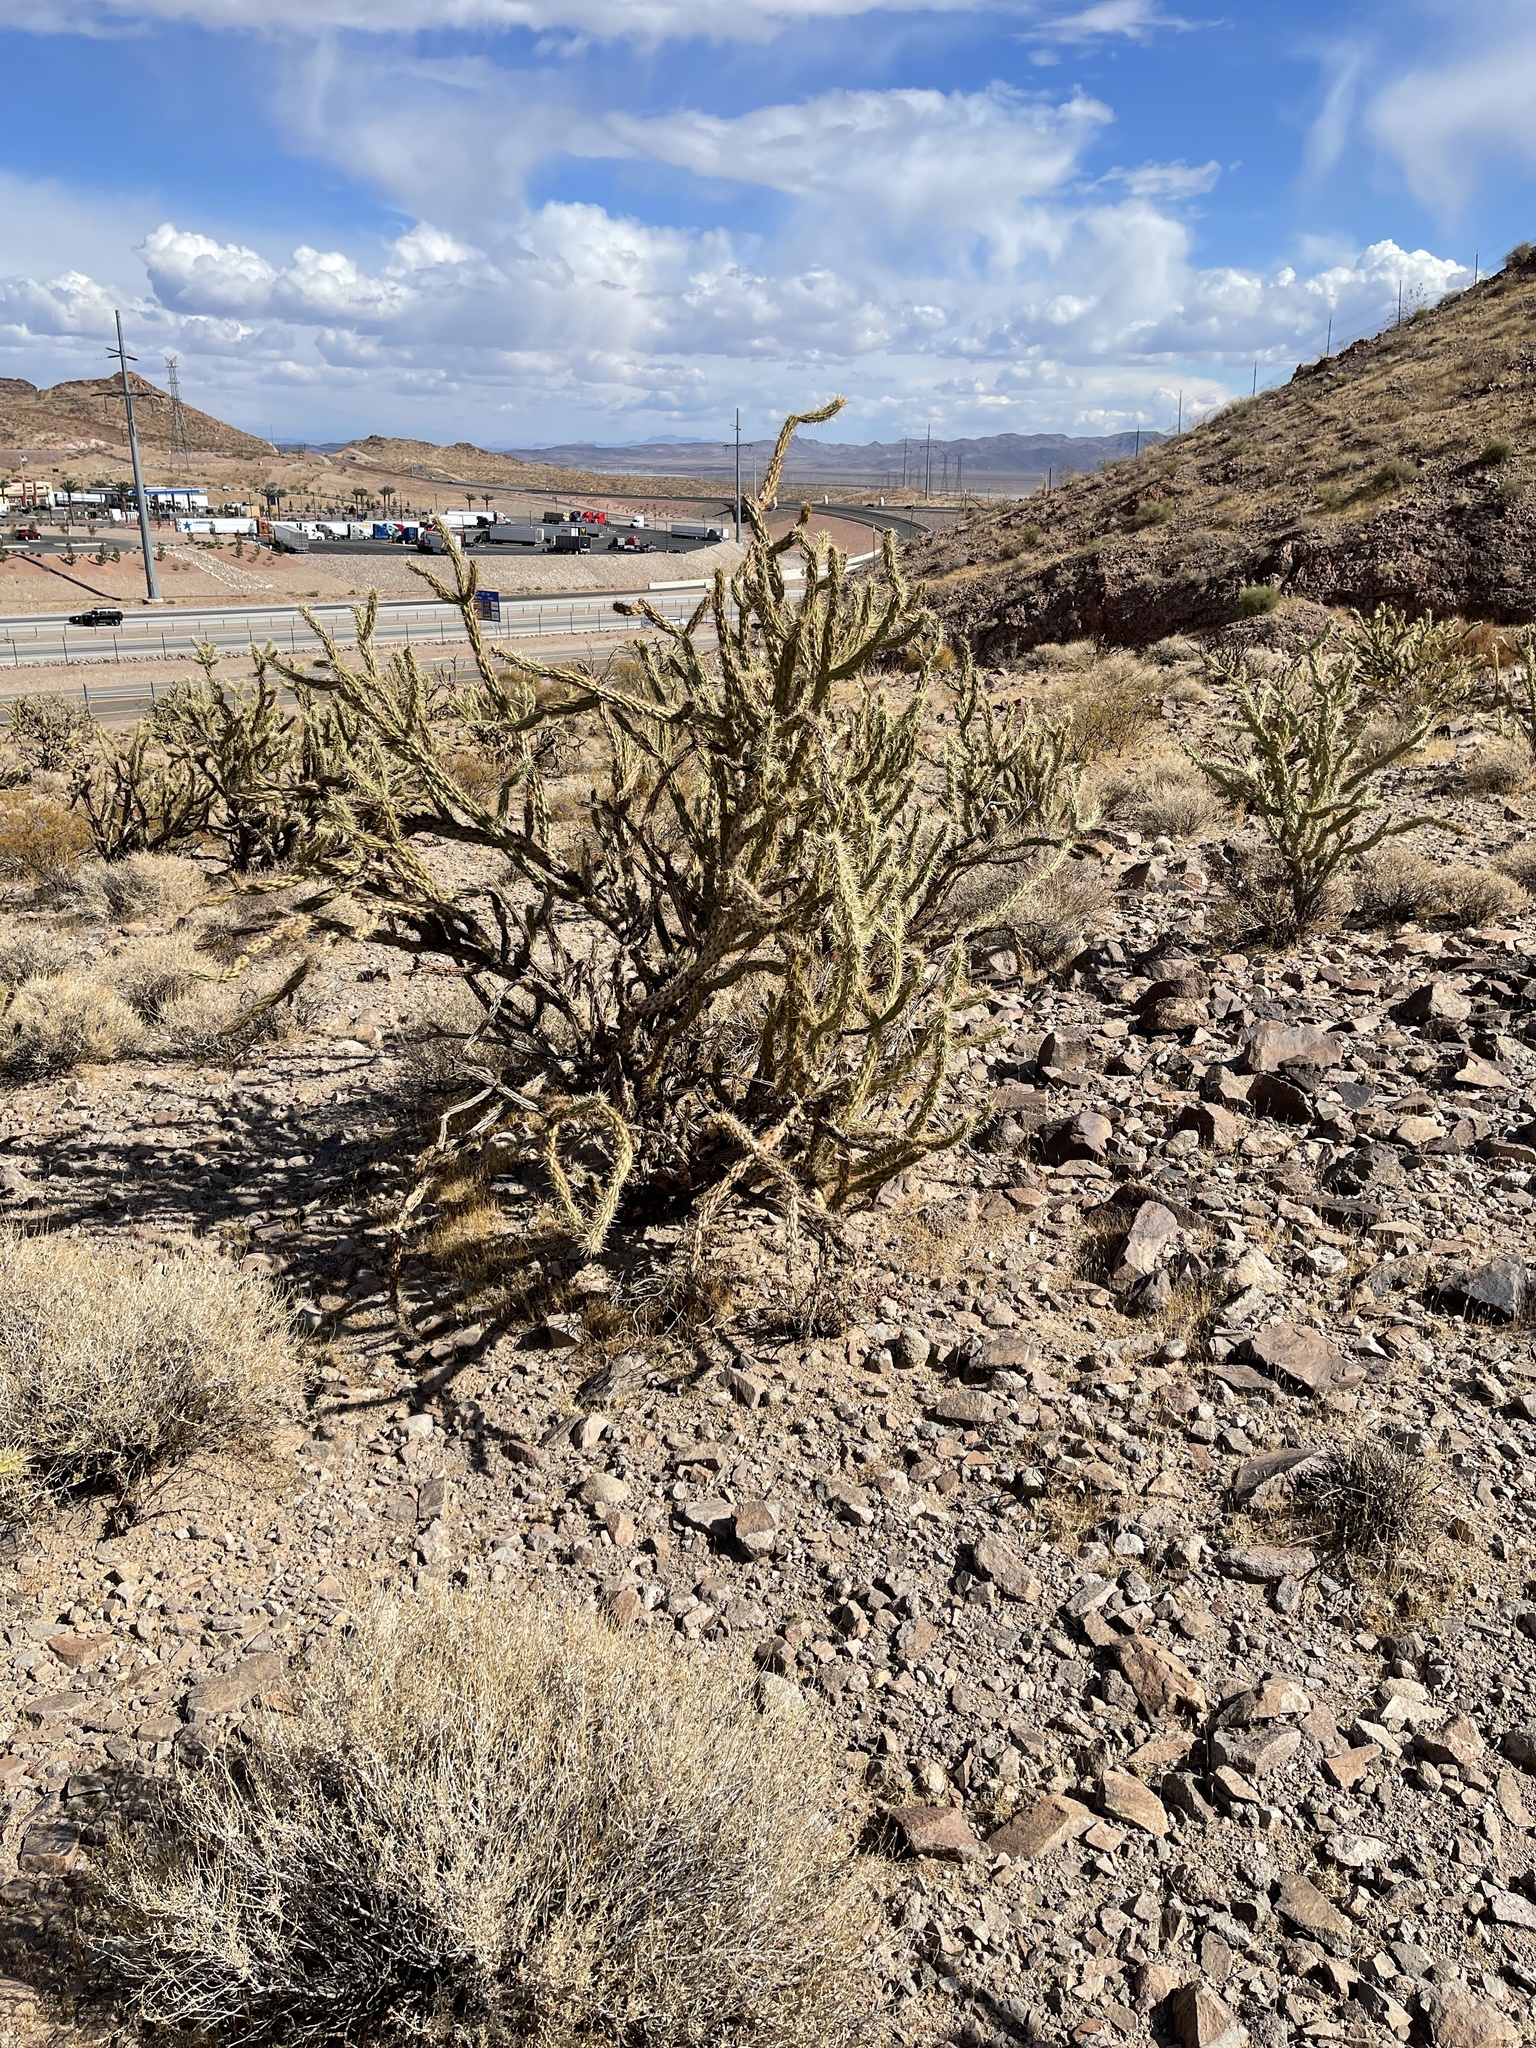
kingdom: Plantae
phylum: Tracheophyta
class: Magnoliopsida
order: Caryophyllales
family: Cactaceae
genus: Cylindropuntia
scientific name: Cylindropuntia acanthocarpa
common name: Buckhorn cholla
